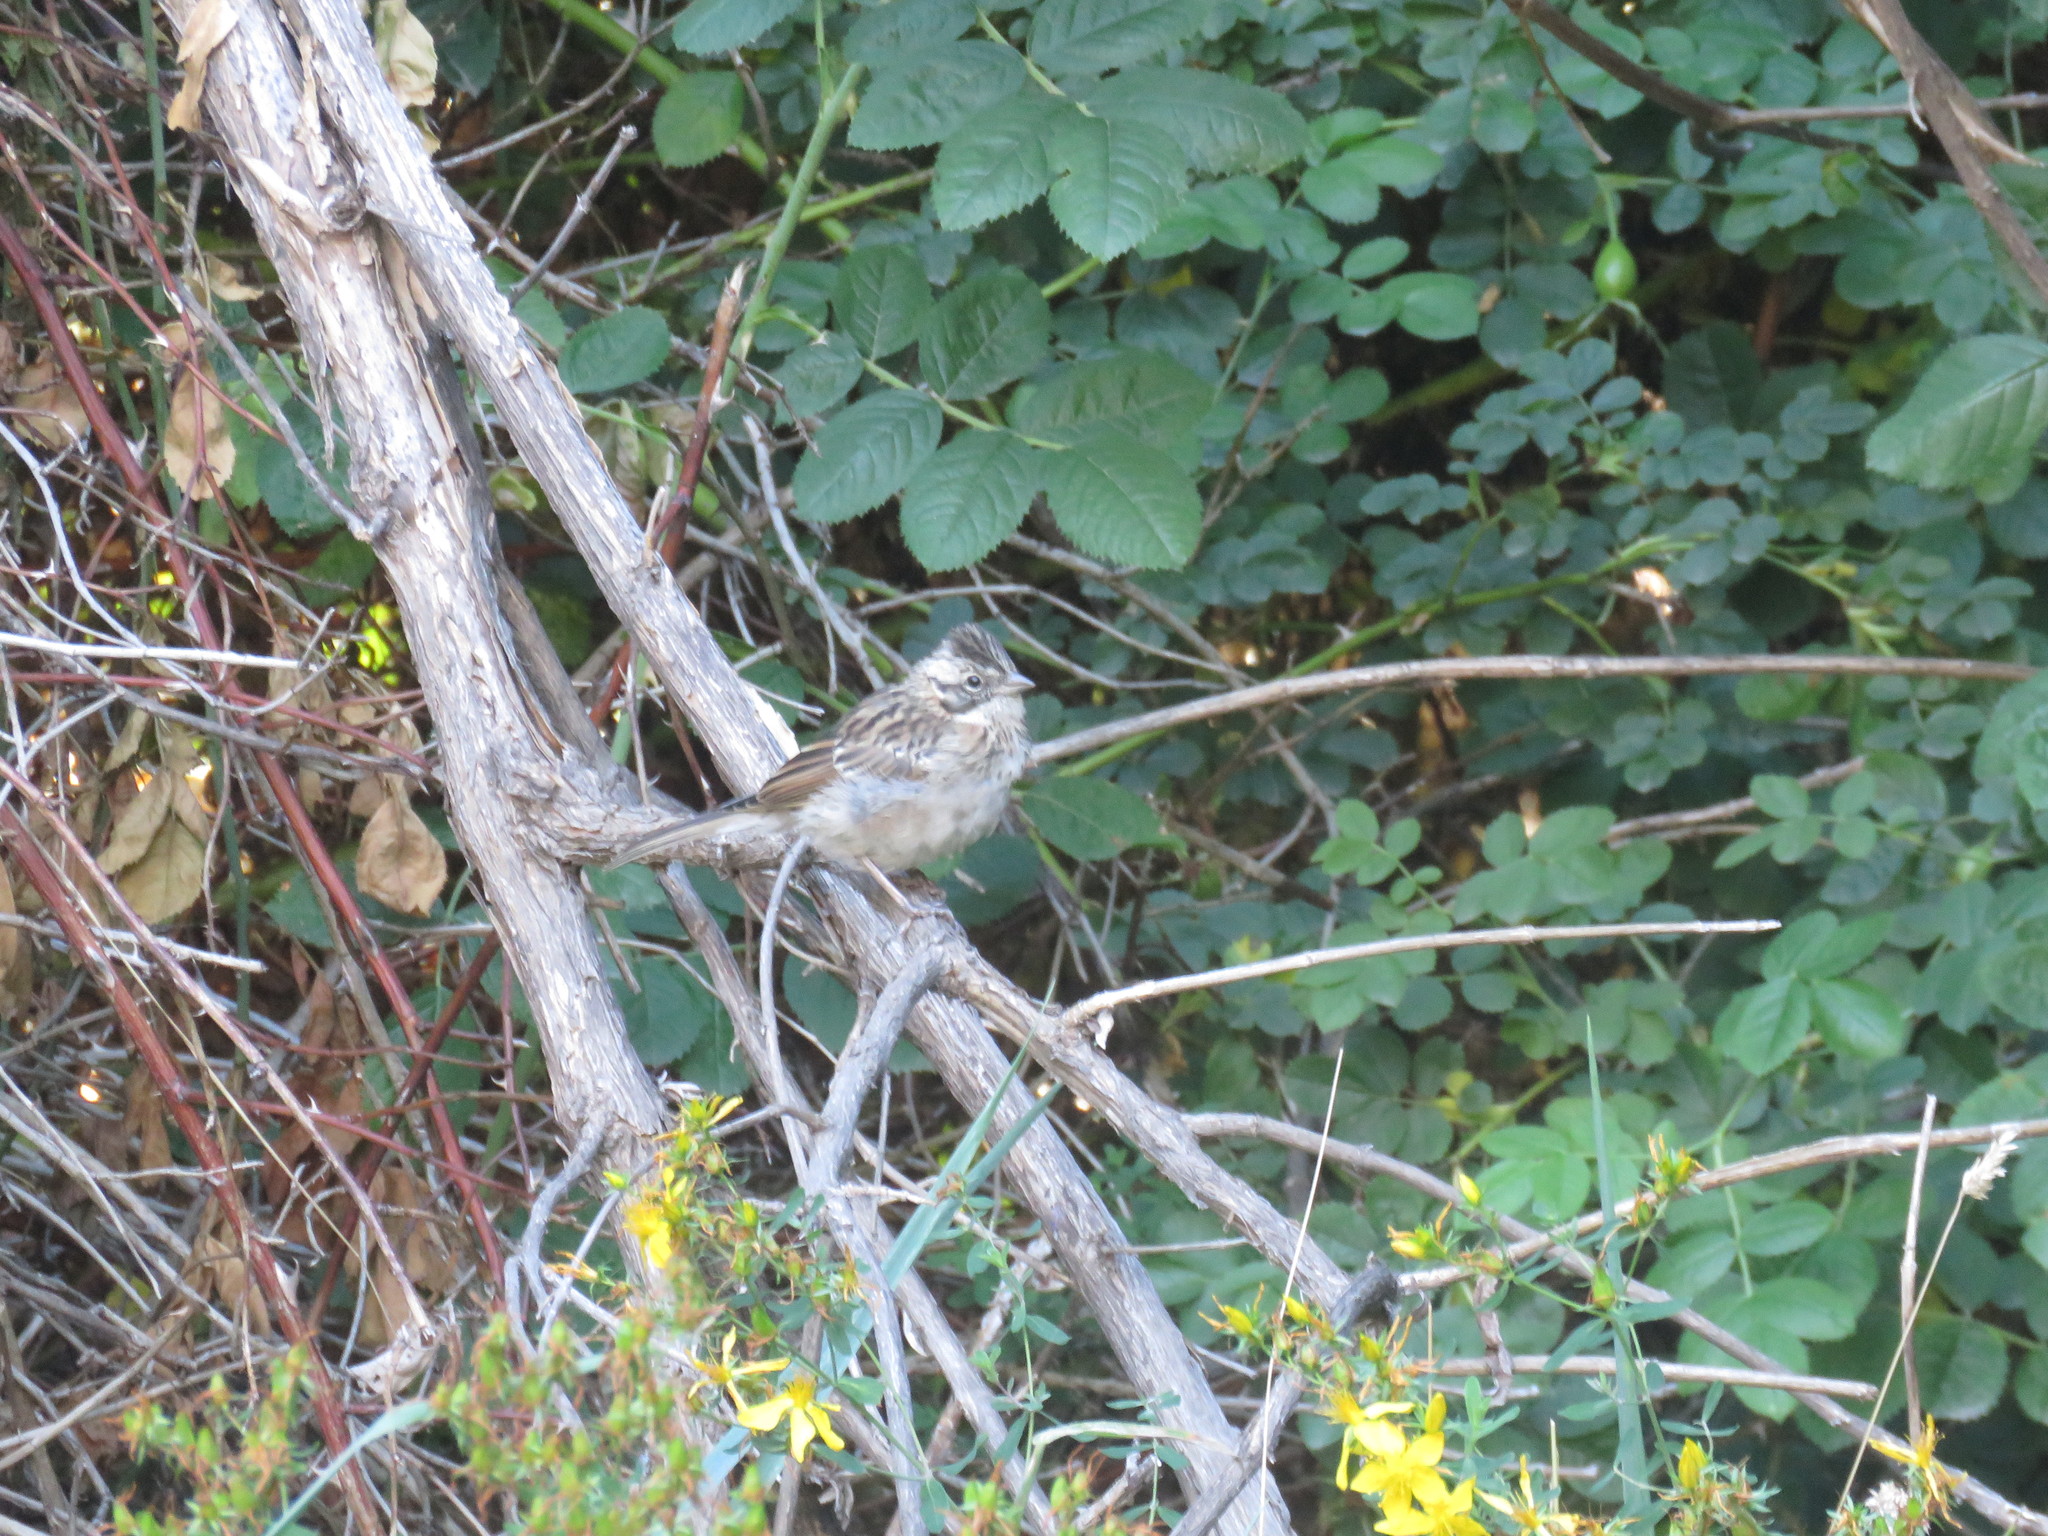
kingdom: Animalia
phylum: Chordata
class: Aves
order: Passeriformes
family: Passerellidae
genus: Zonotrichia
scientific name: Zonotrichia capensis
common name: Rufous-collared sparrow
